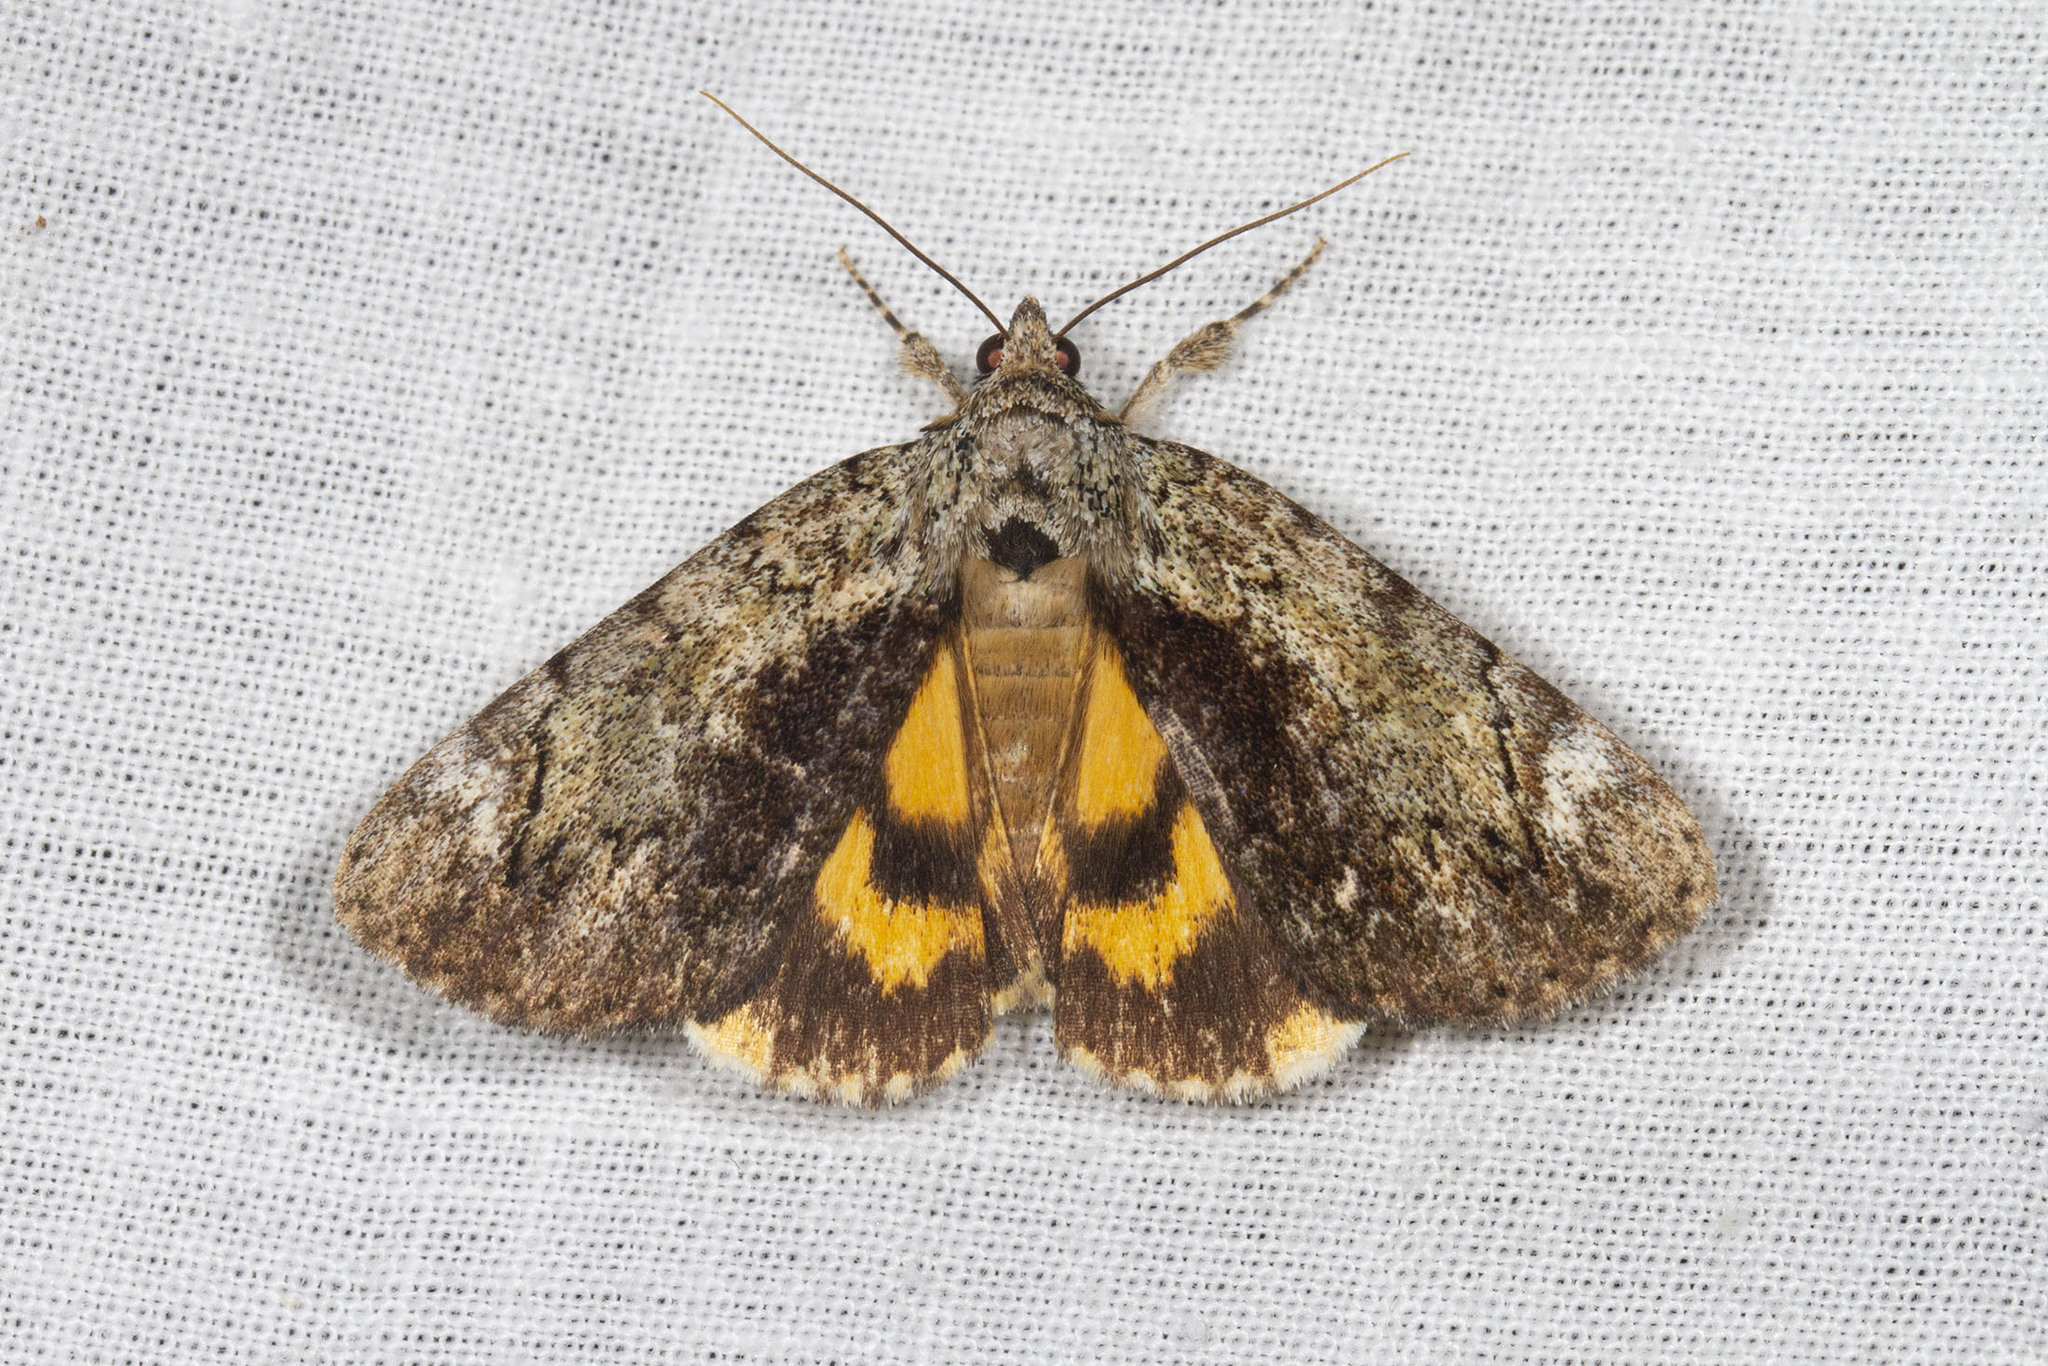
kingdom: Animalia
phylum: Arthropoda
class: Insecta
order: Lepidoptera
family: Erebidae
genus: Catocala
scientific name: Catocala minuta
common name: Little underwing
